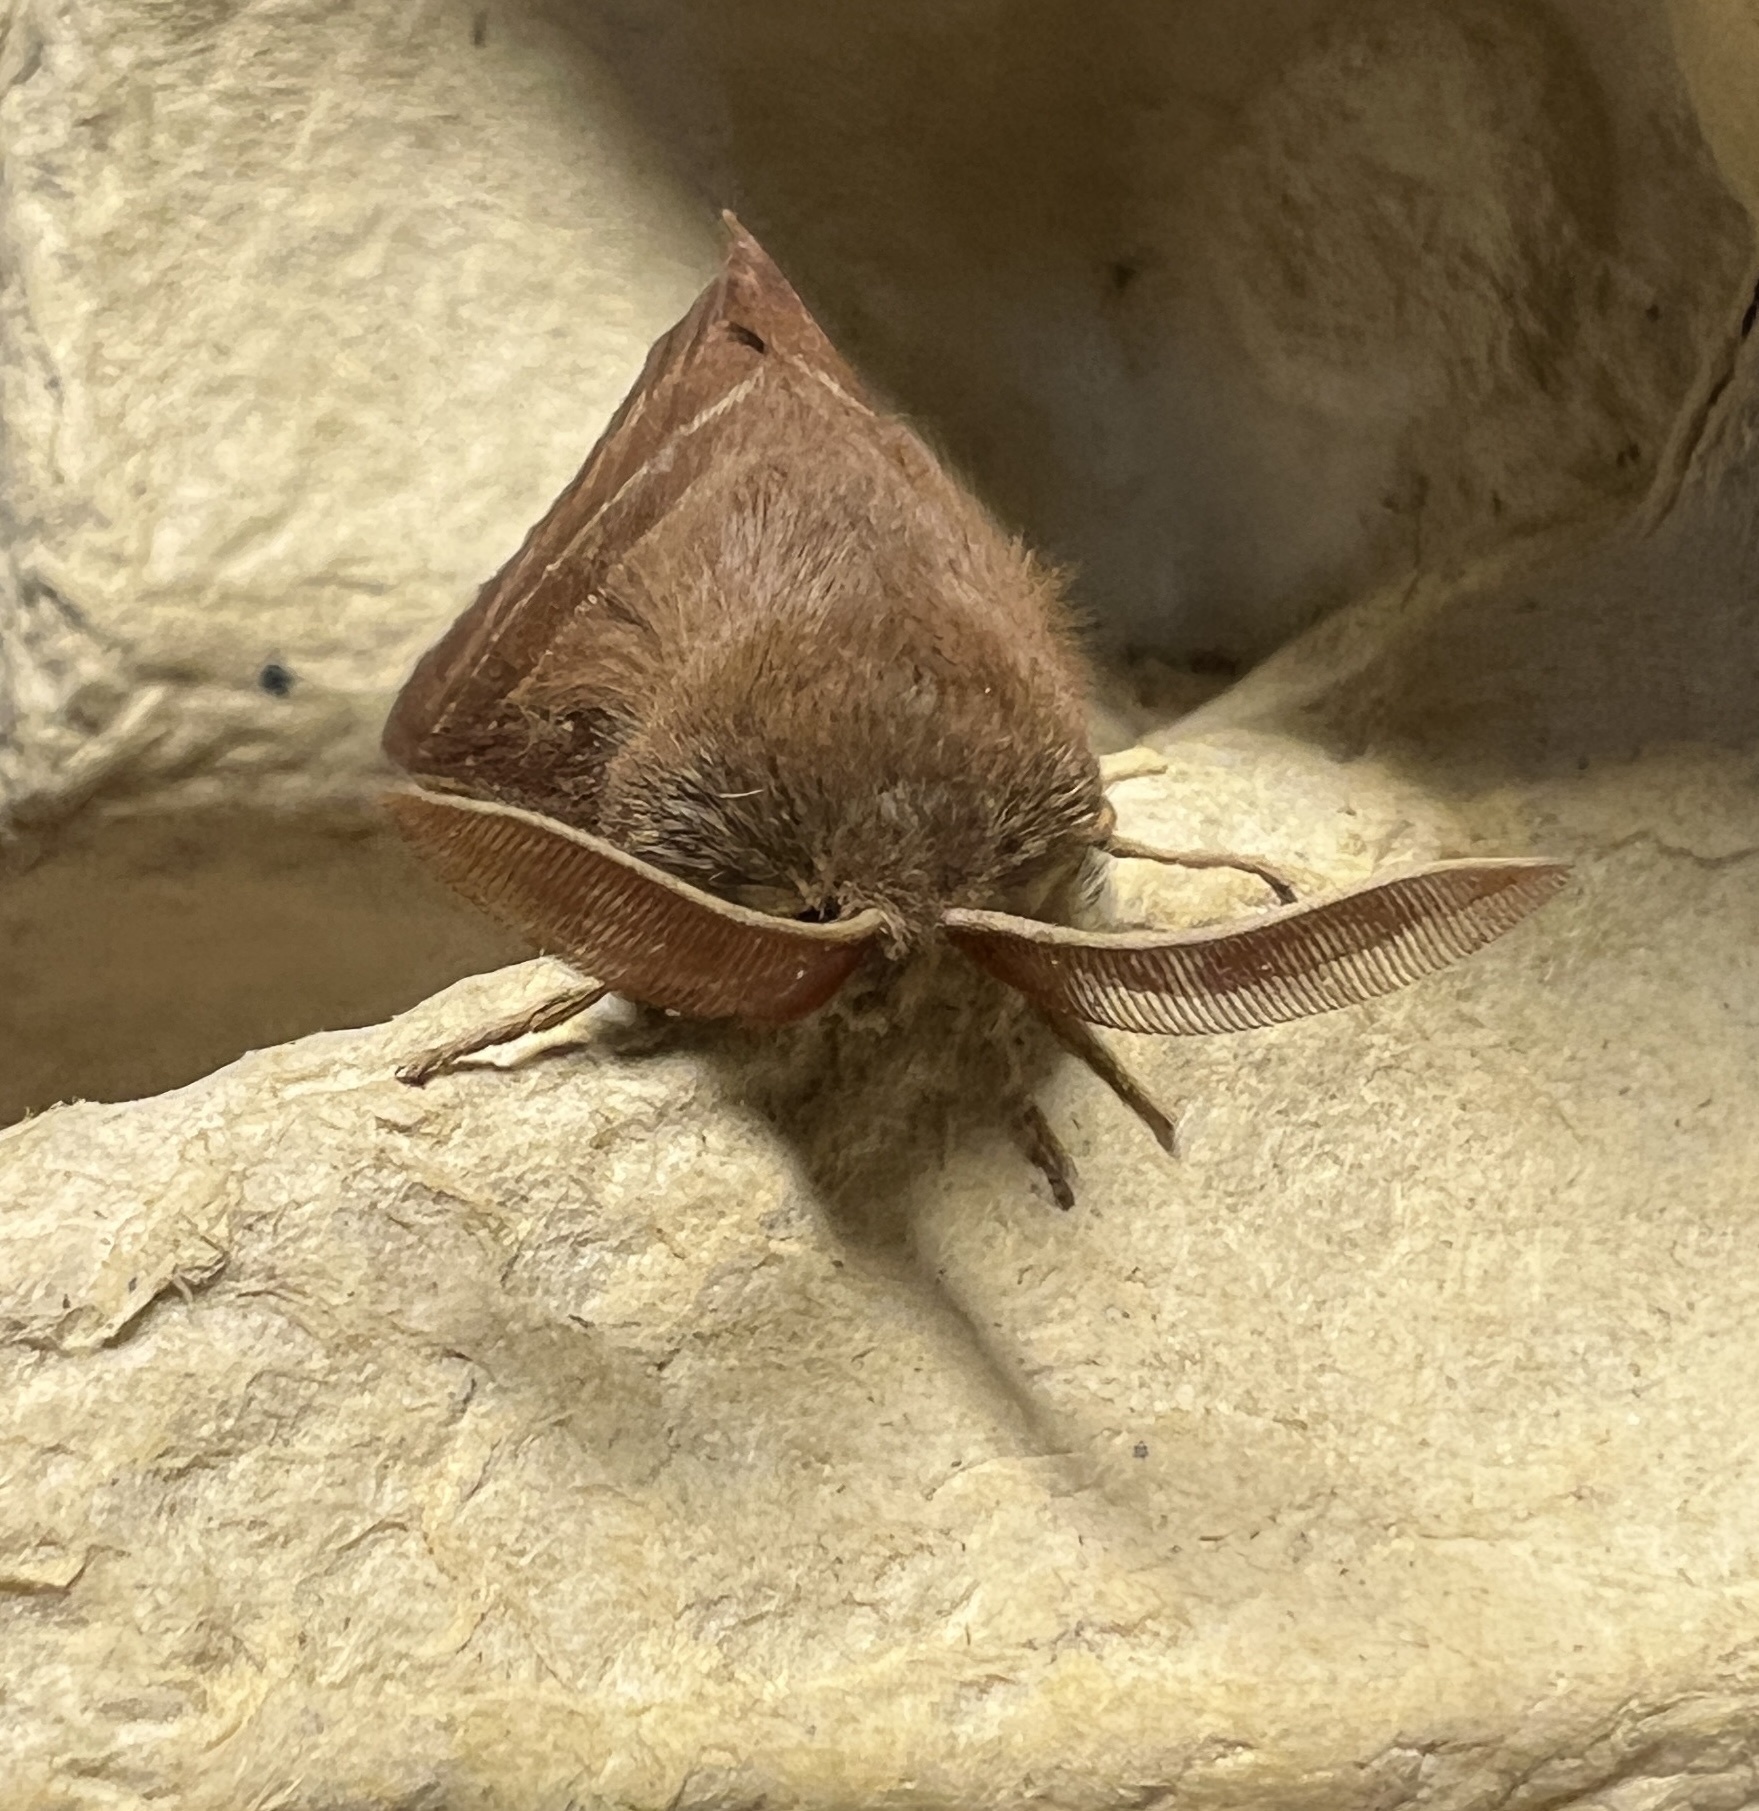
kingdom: Animalia
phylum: Arthropoda
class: Insecta
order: Lepidoptera
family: Lasiocampidae
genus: Macrothylacia
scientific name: Macrothylacia rubi
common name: Fox moth
